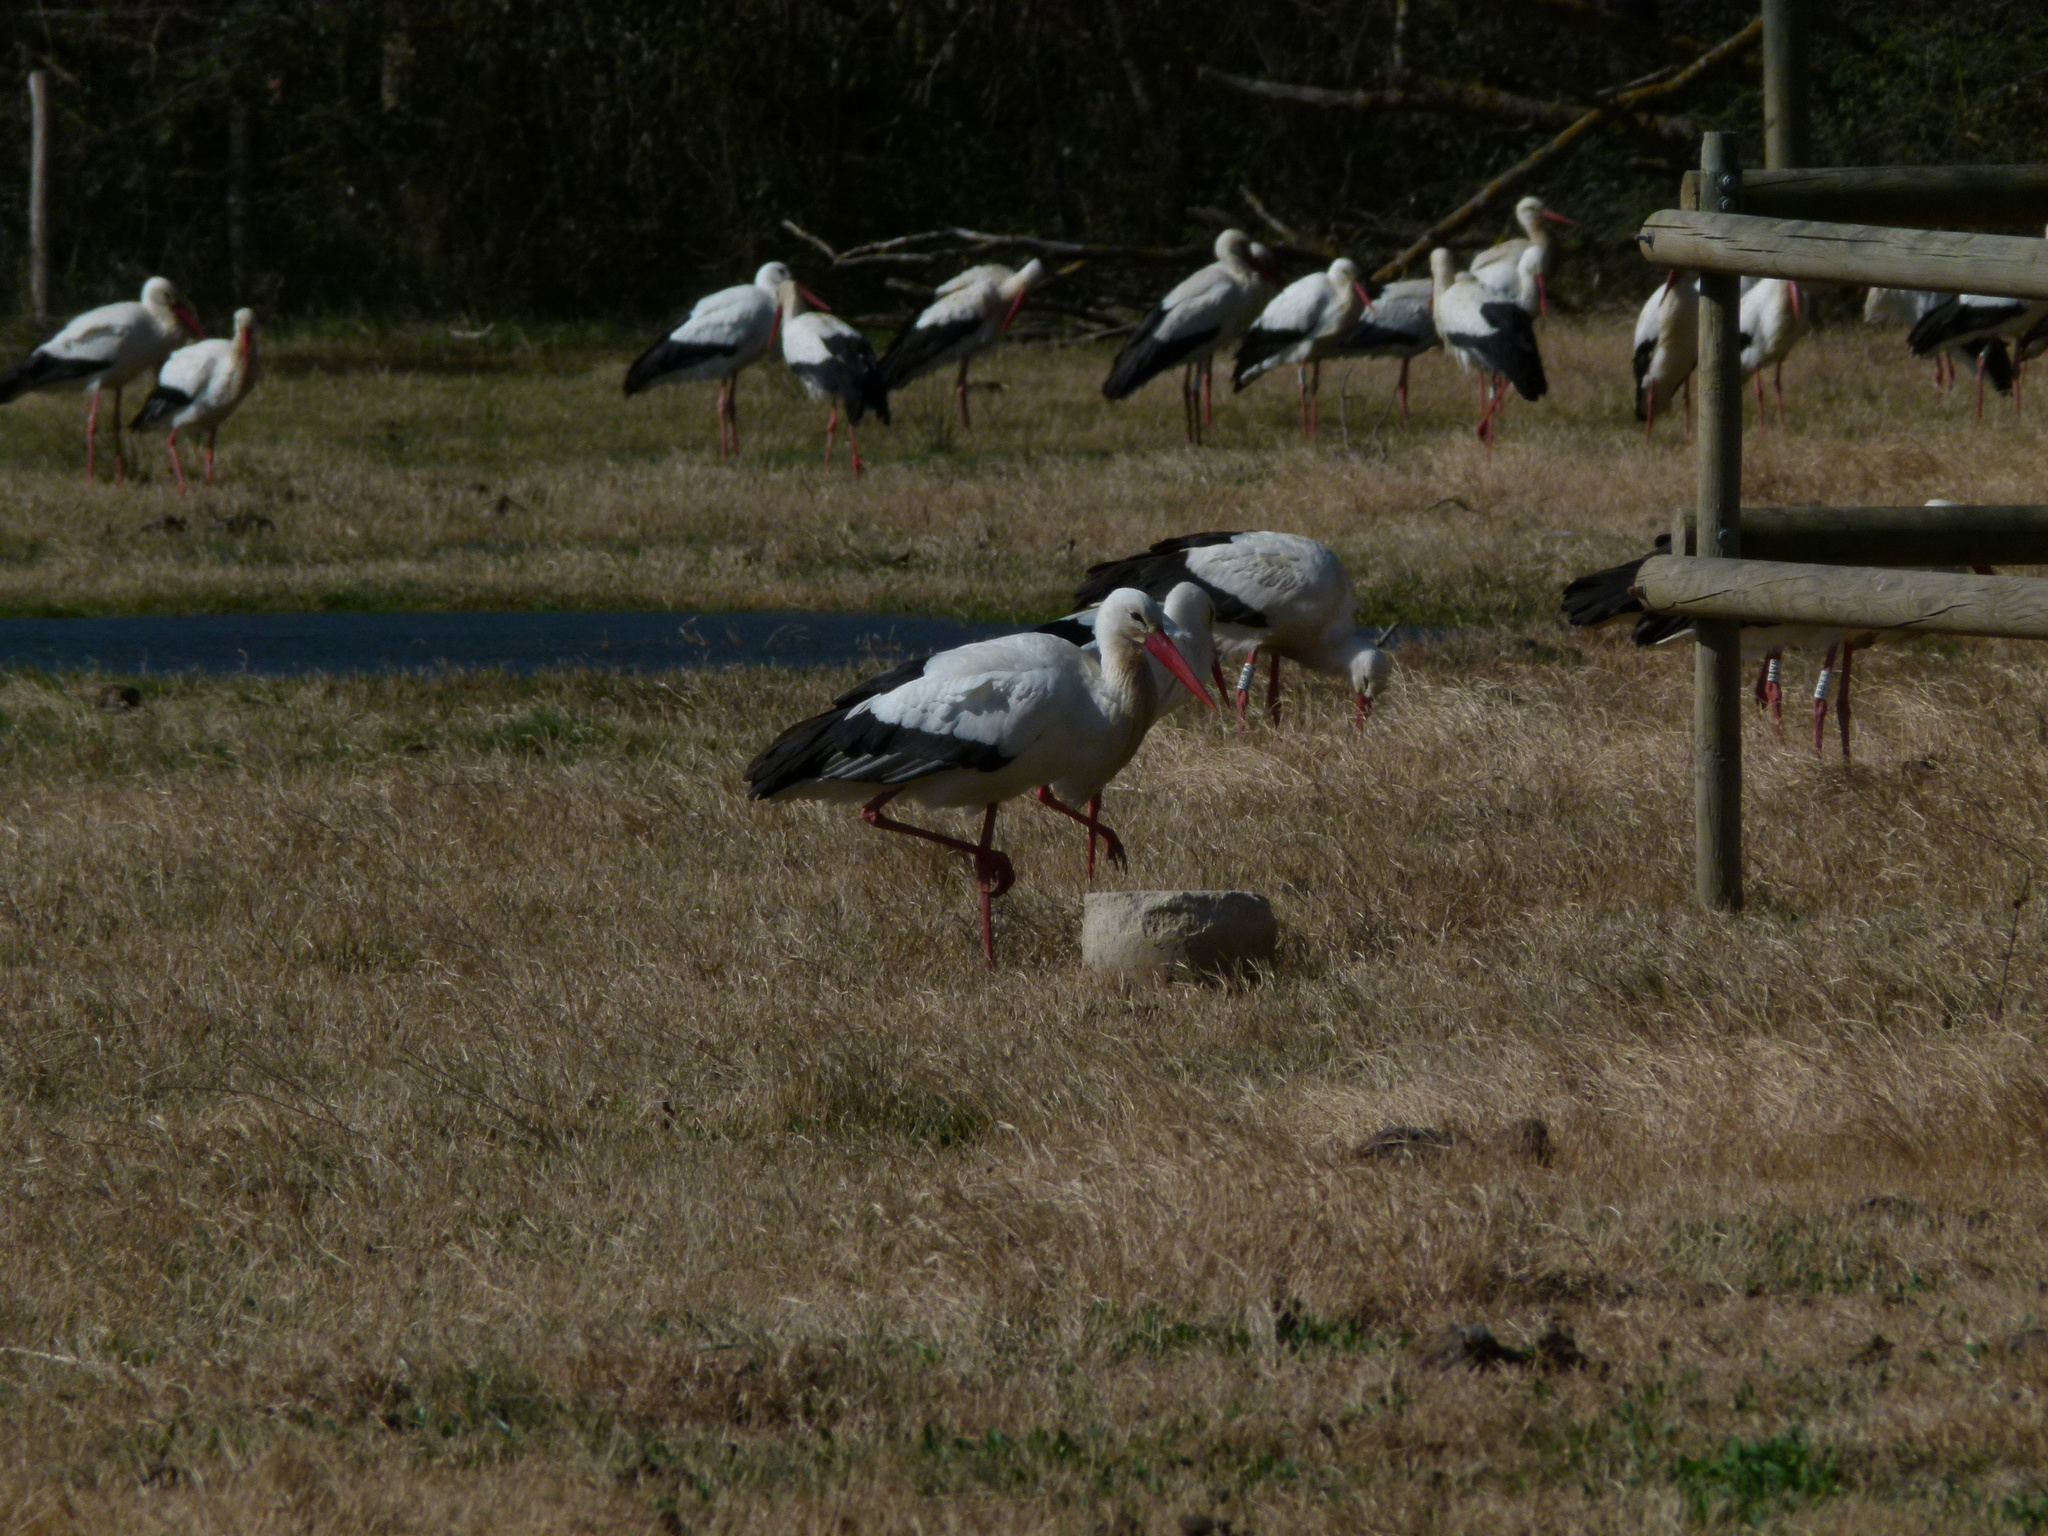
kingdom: Animalia
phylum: Chordata
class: Aves
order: Ciconiiformes
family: Ciconiidae
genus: Ciconia
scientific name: Ciconia ciconia
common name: White stork
